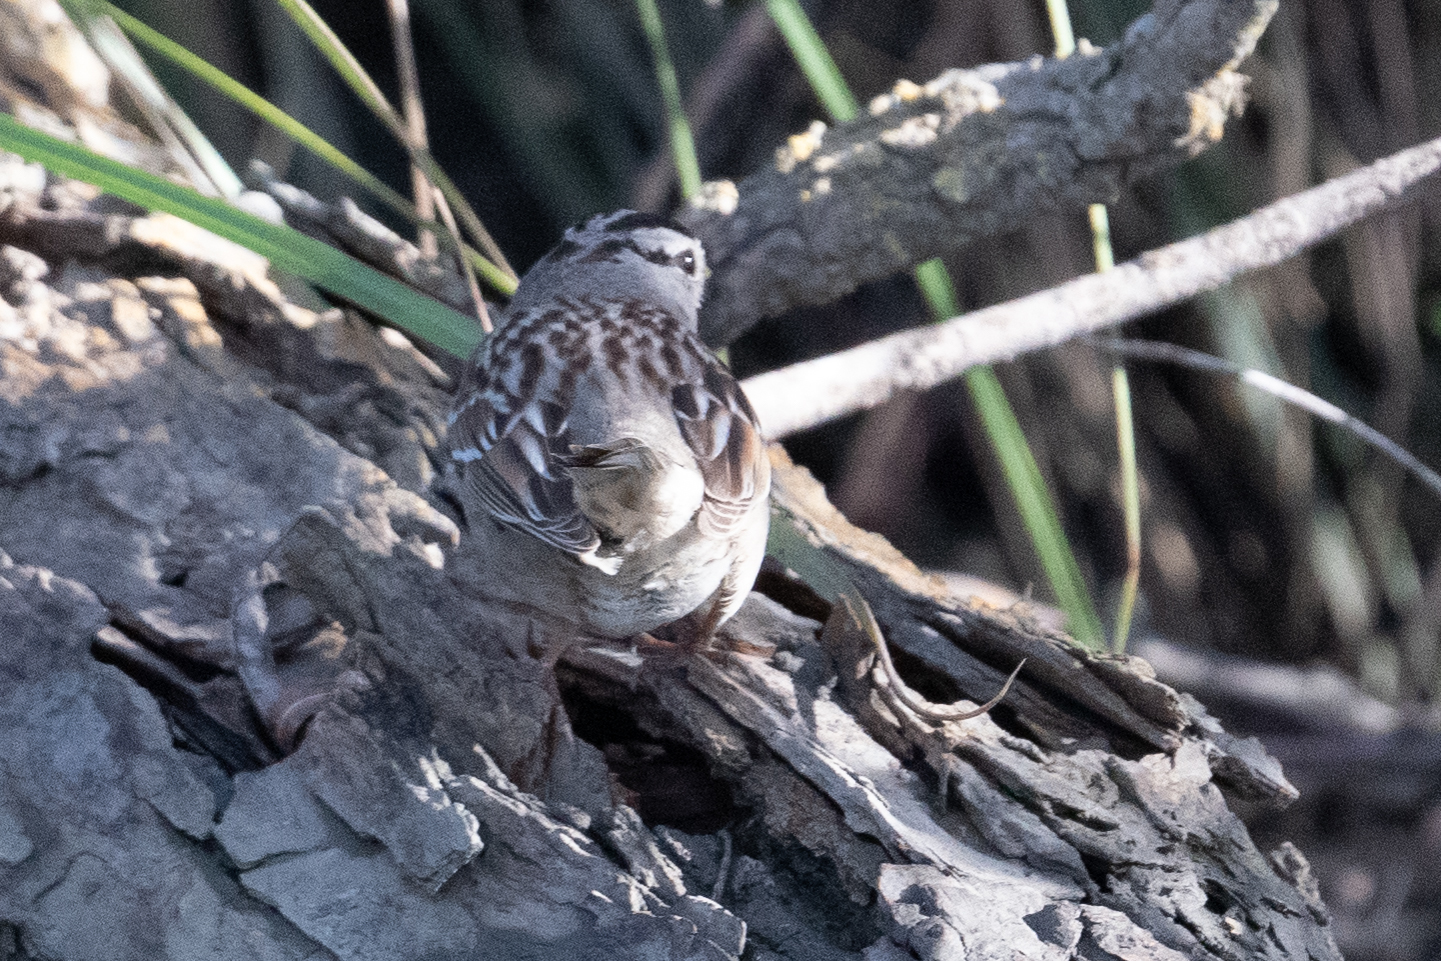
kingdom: Animalia
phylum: Chordata
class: Aves
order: Passeriformes
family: Passerellidae
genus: Zonotrichia
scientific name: Zonotrichia leucophrys
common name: White-crowned sparrow
